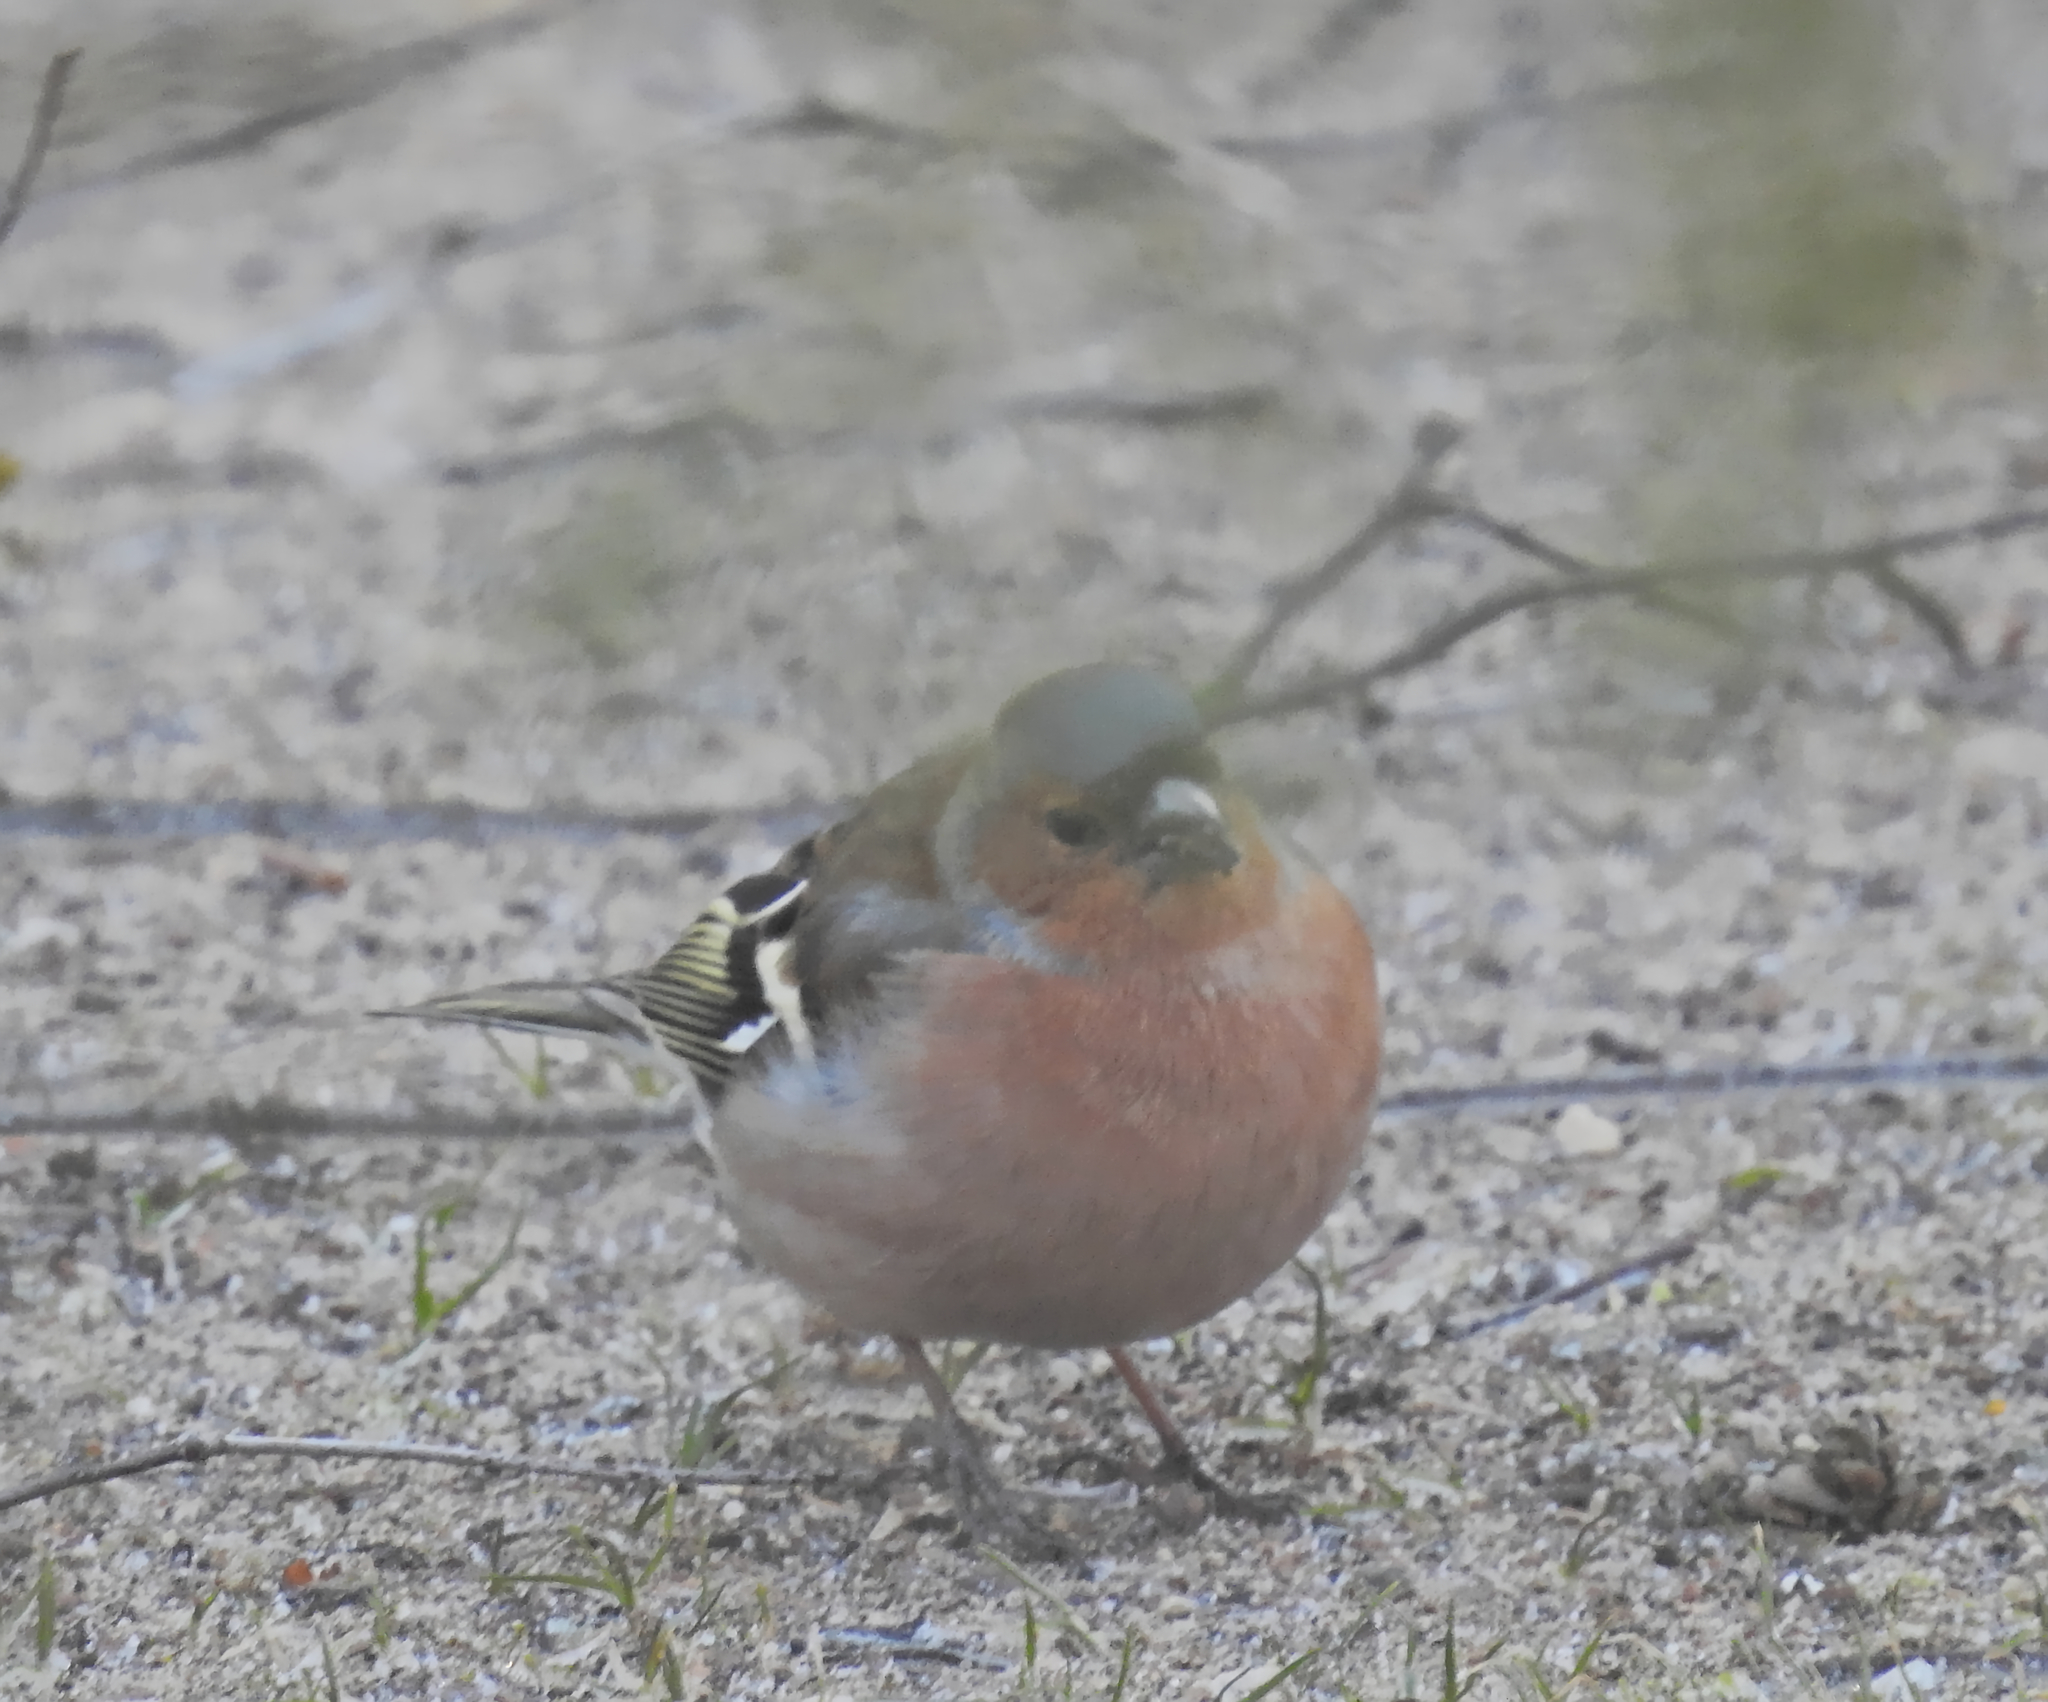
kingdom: Animalia
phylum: Chordata
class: Aves
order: Passeriformes
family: Fringillidae
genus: Fringilla
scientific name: Fringilla coelebs
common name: Common chaffinch
